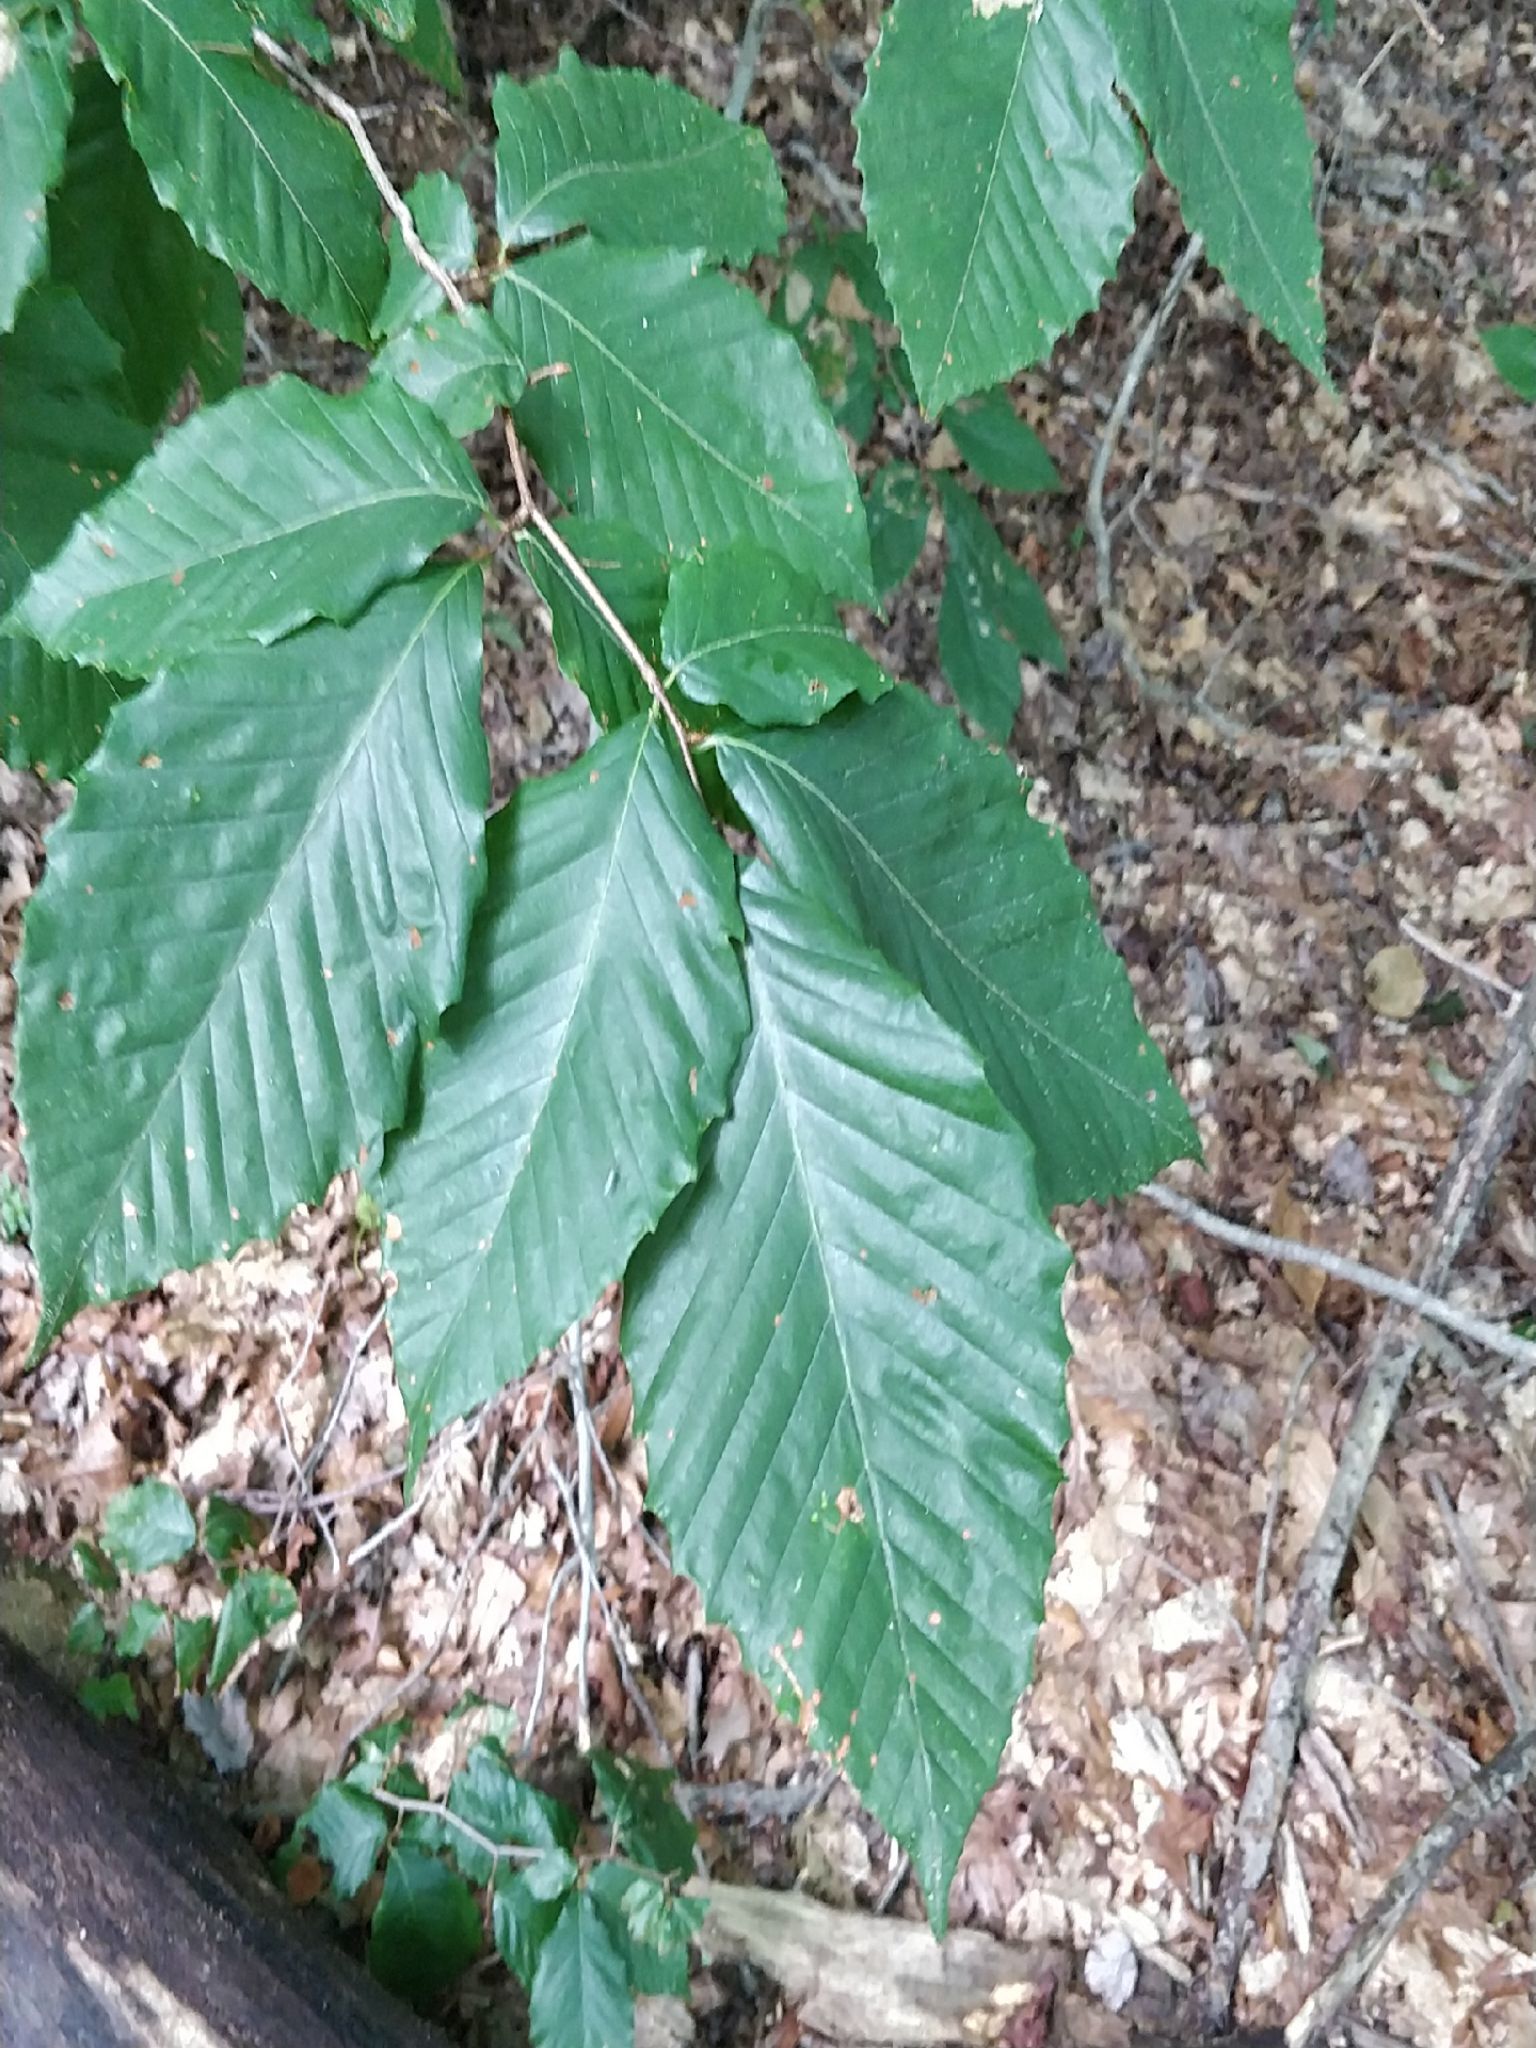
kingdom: Plantae
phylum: Tracheophyta
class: Magnoliopsida
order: Fagales
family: Fagaceae
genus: Fagus
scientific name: Fagus grandifolia
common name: American beech
